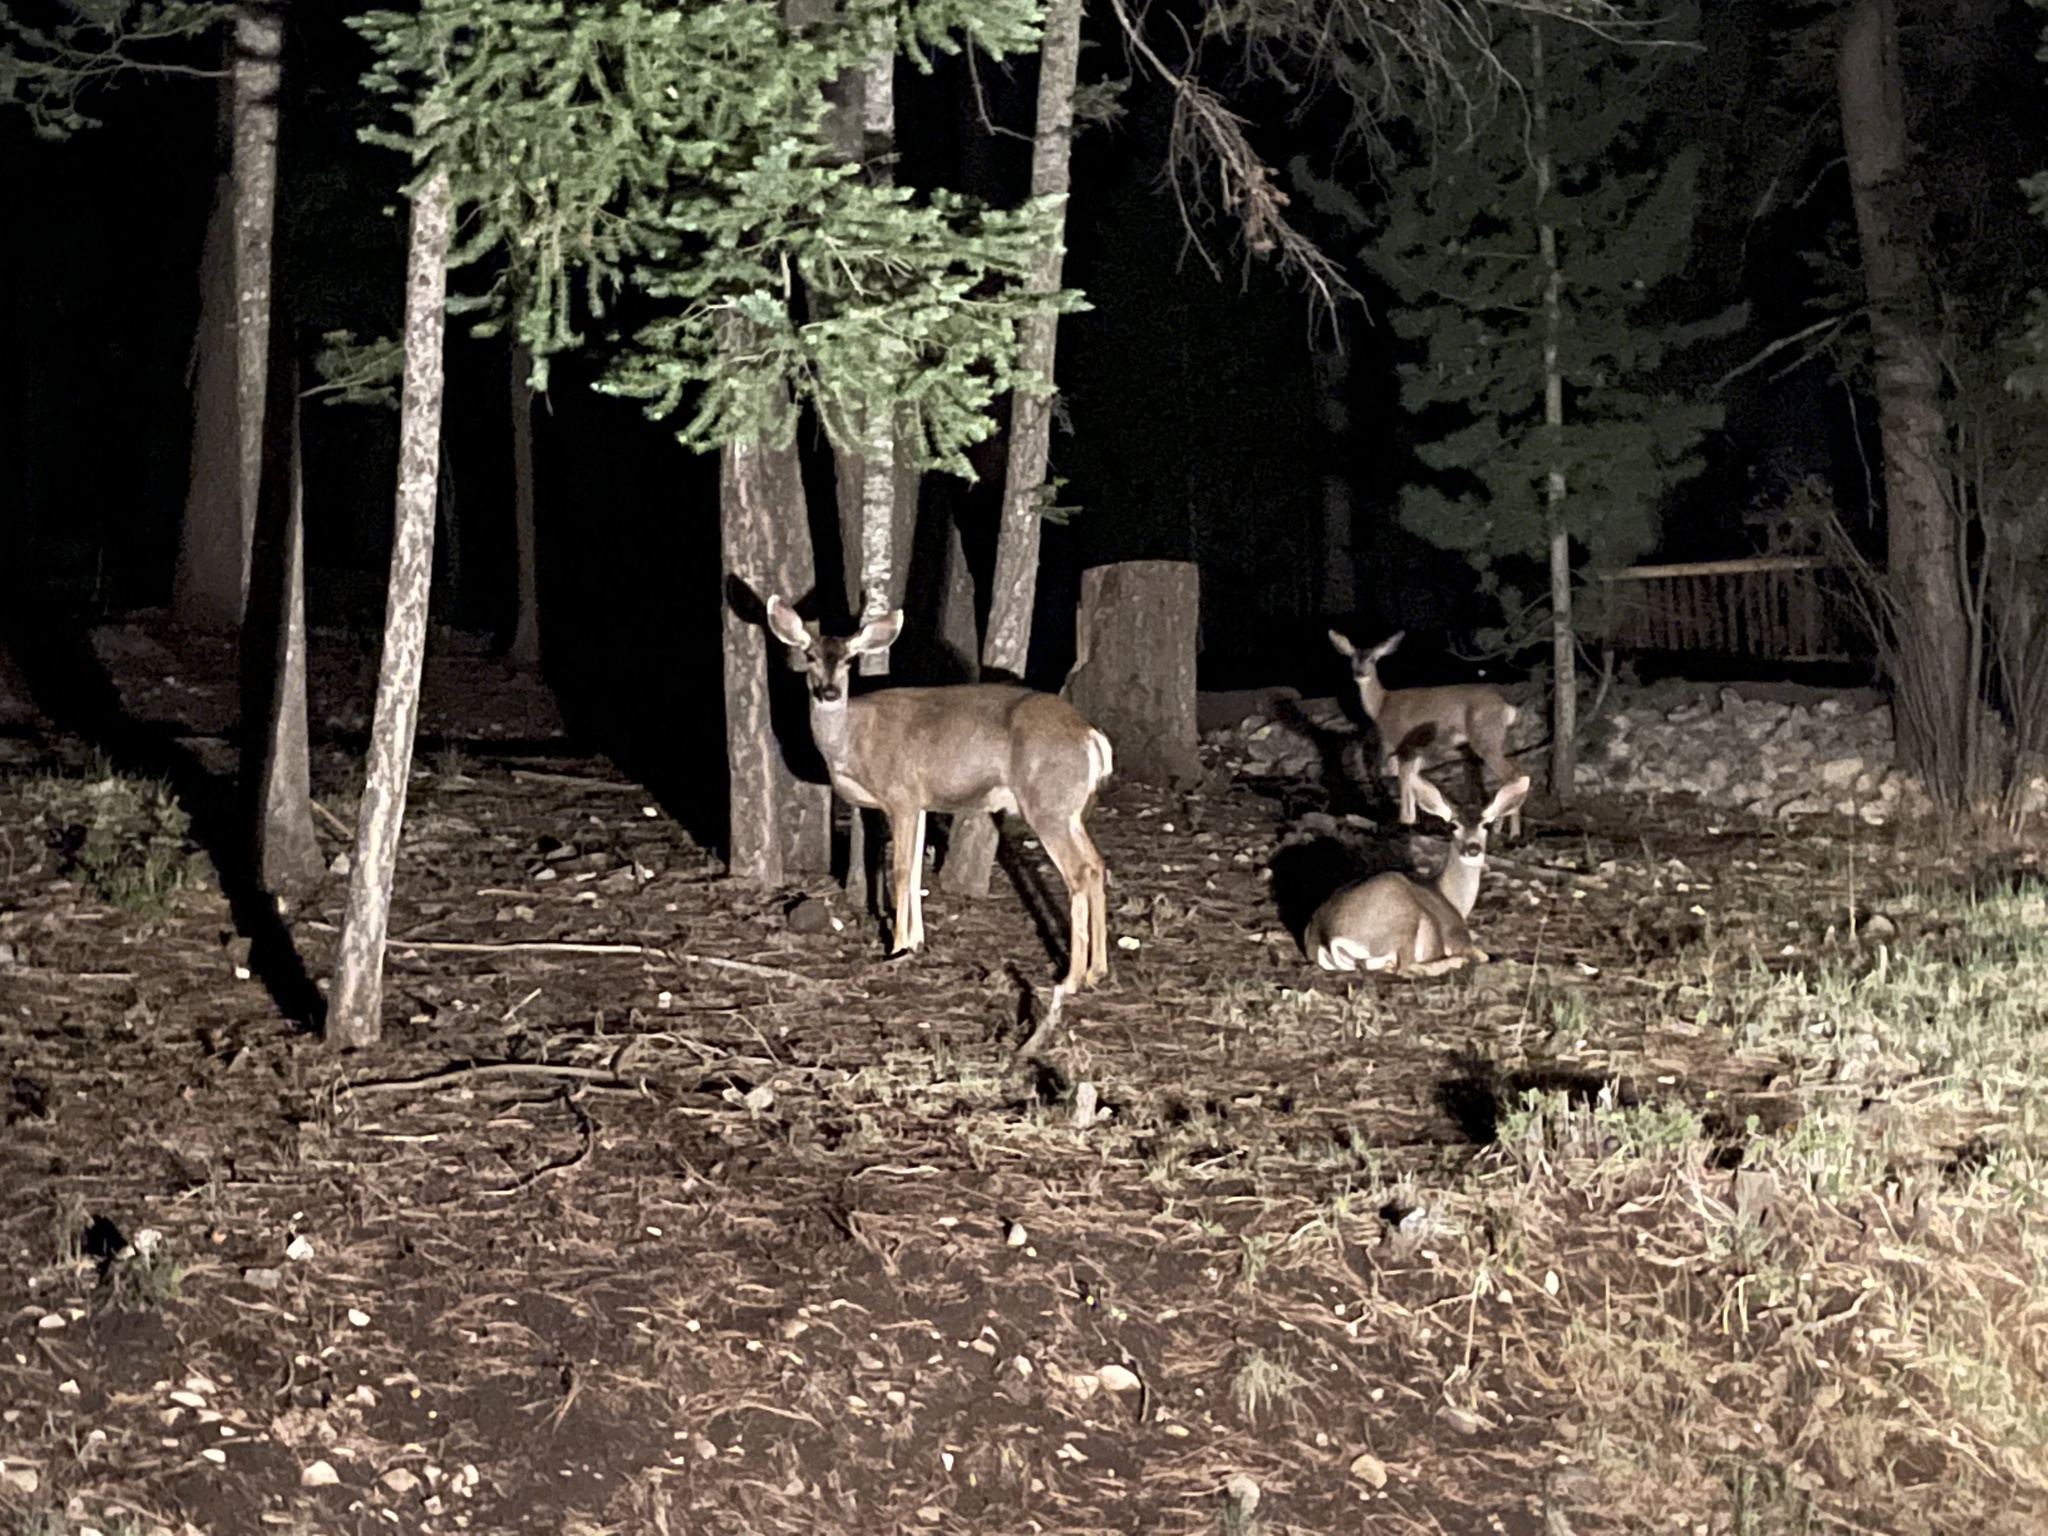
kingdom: Animalia
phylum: Chordata
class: Mammalia
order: Artiodactyla
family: Cervidae
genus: Odocoileus
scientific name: Odocoileus hemionus
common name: Mule deer
